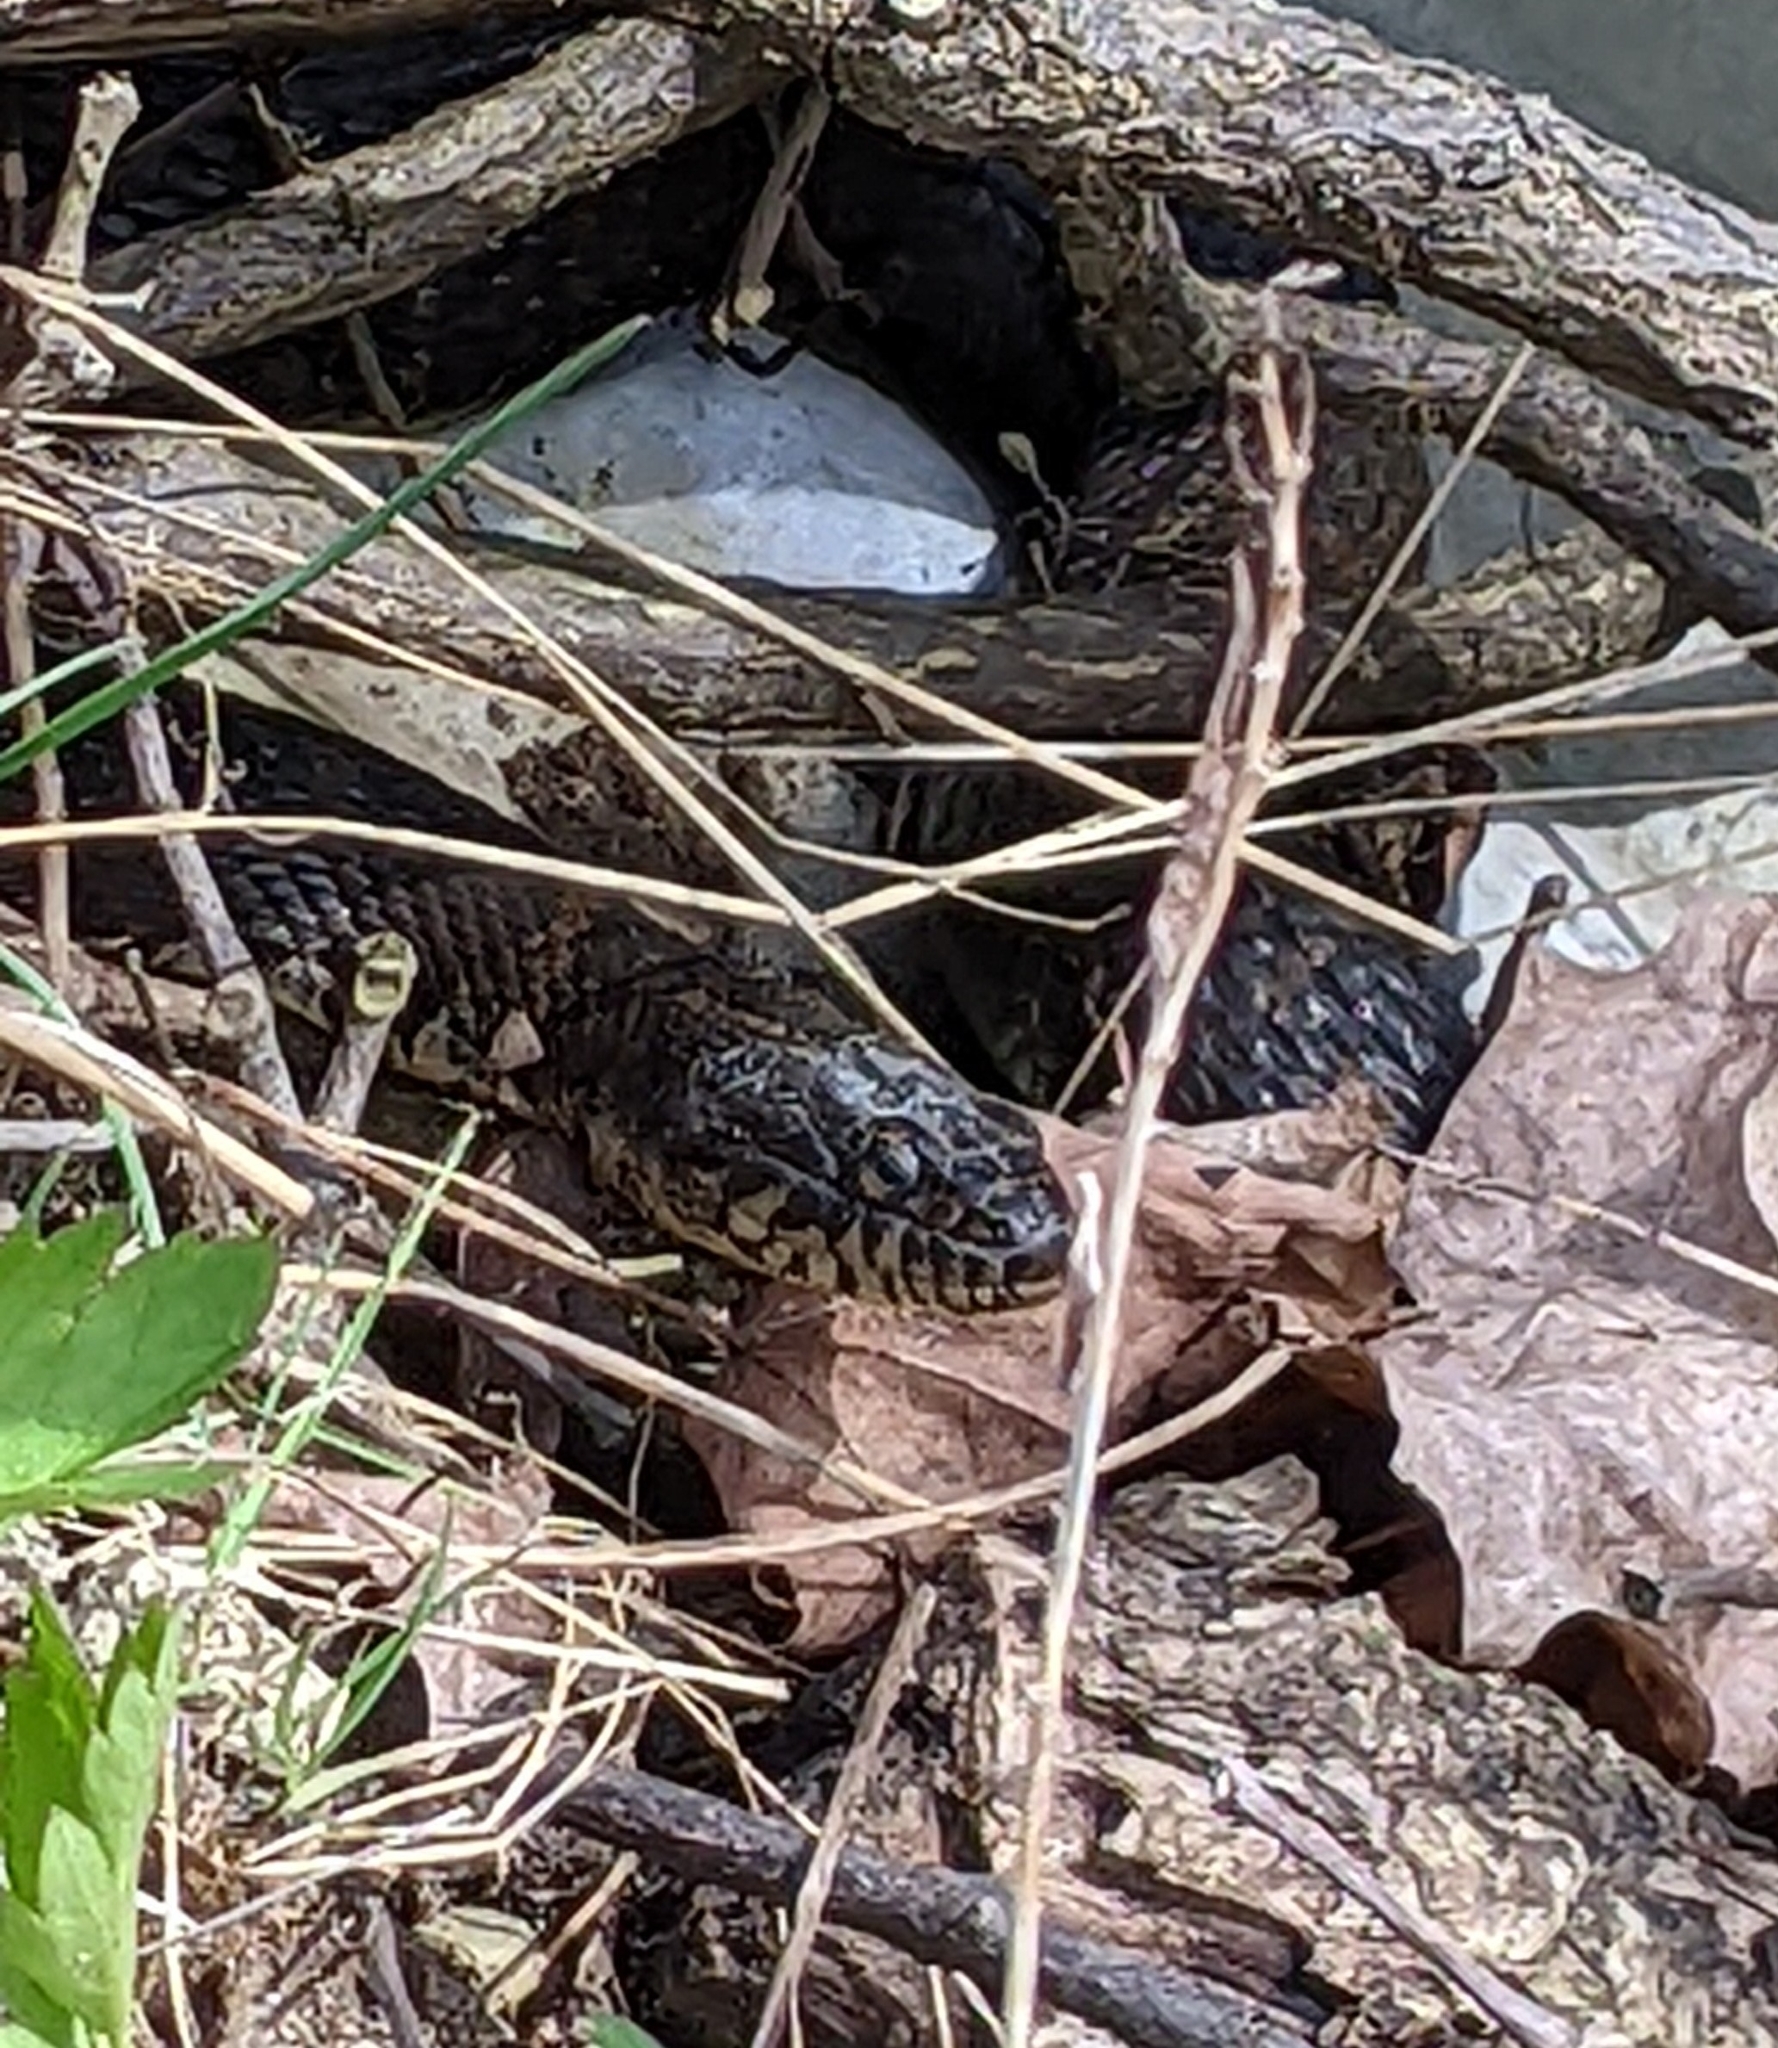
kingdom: Animalia
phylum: Chordata
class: Squamata
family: Colubridae
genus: Nerodia
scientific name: Nerodia sipedon
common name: Northern water snake
